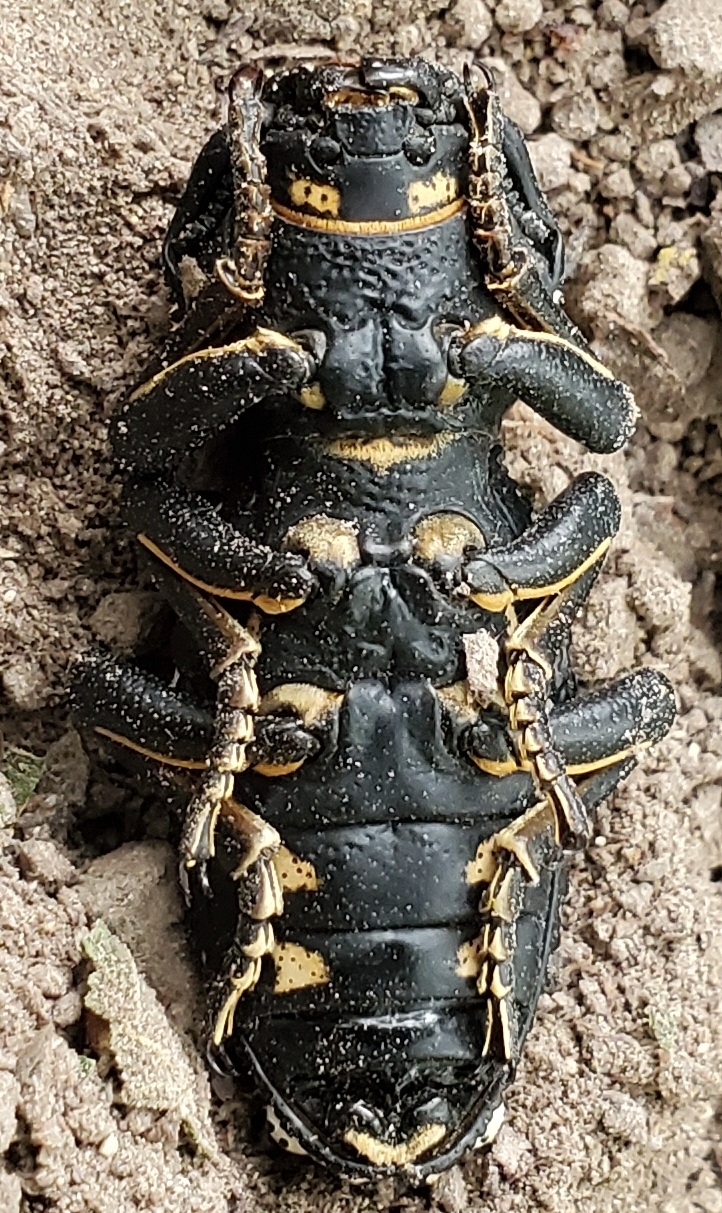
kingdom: Animalia
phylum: Arthropoda
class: Insecta
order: Coleoptera
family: Zopheridae
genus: Zopherus
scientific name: Zopherus nodulosus
